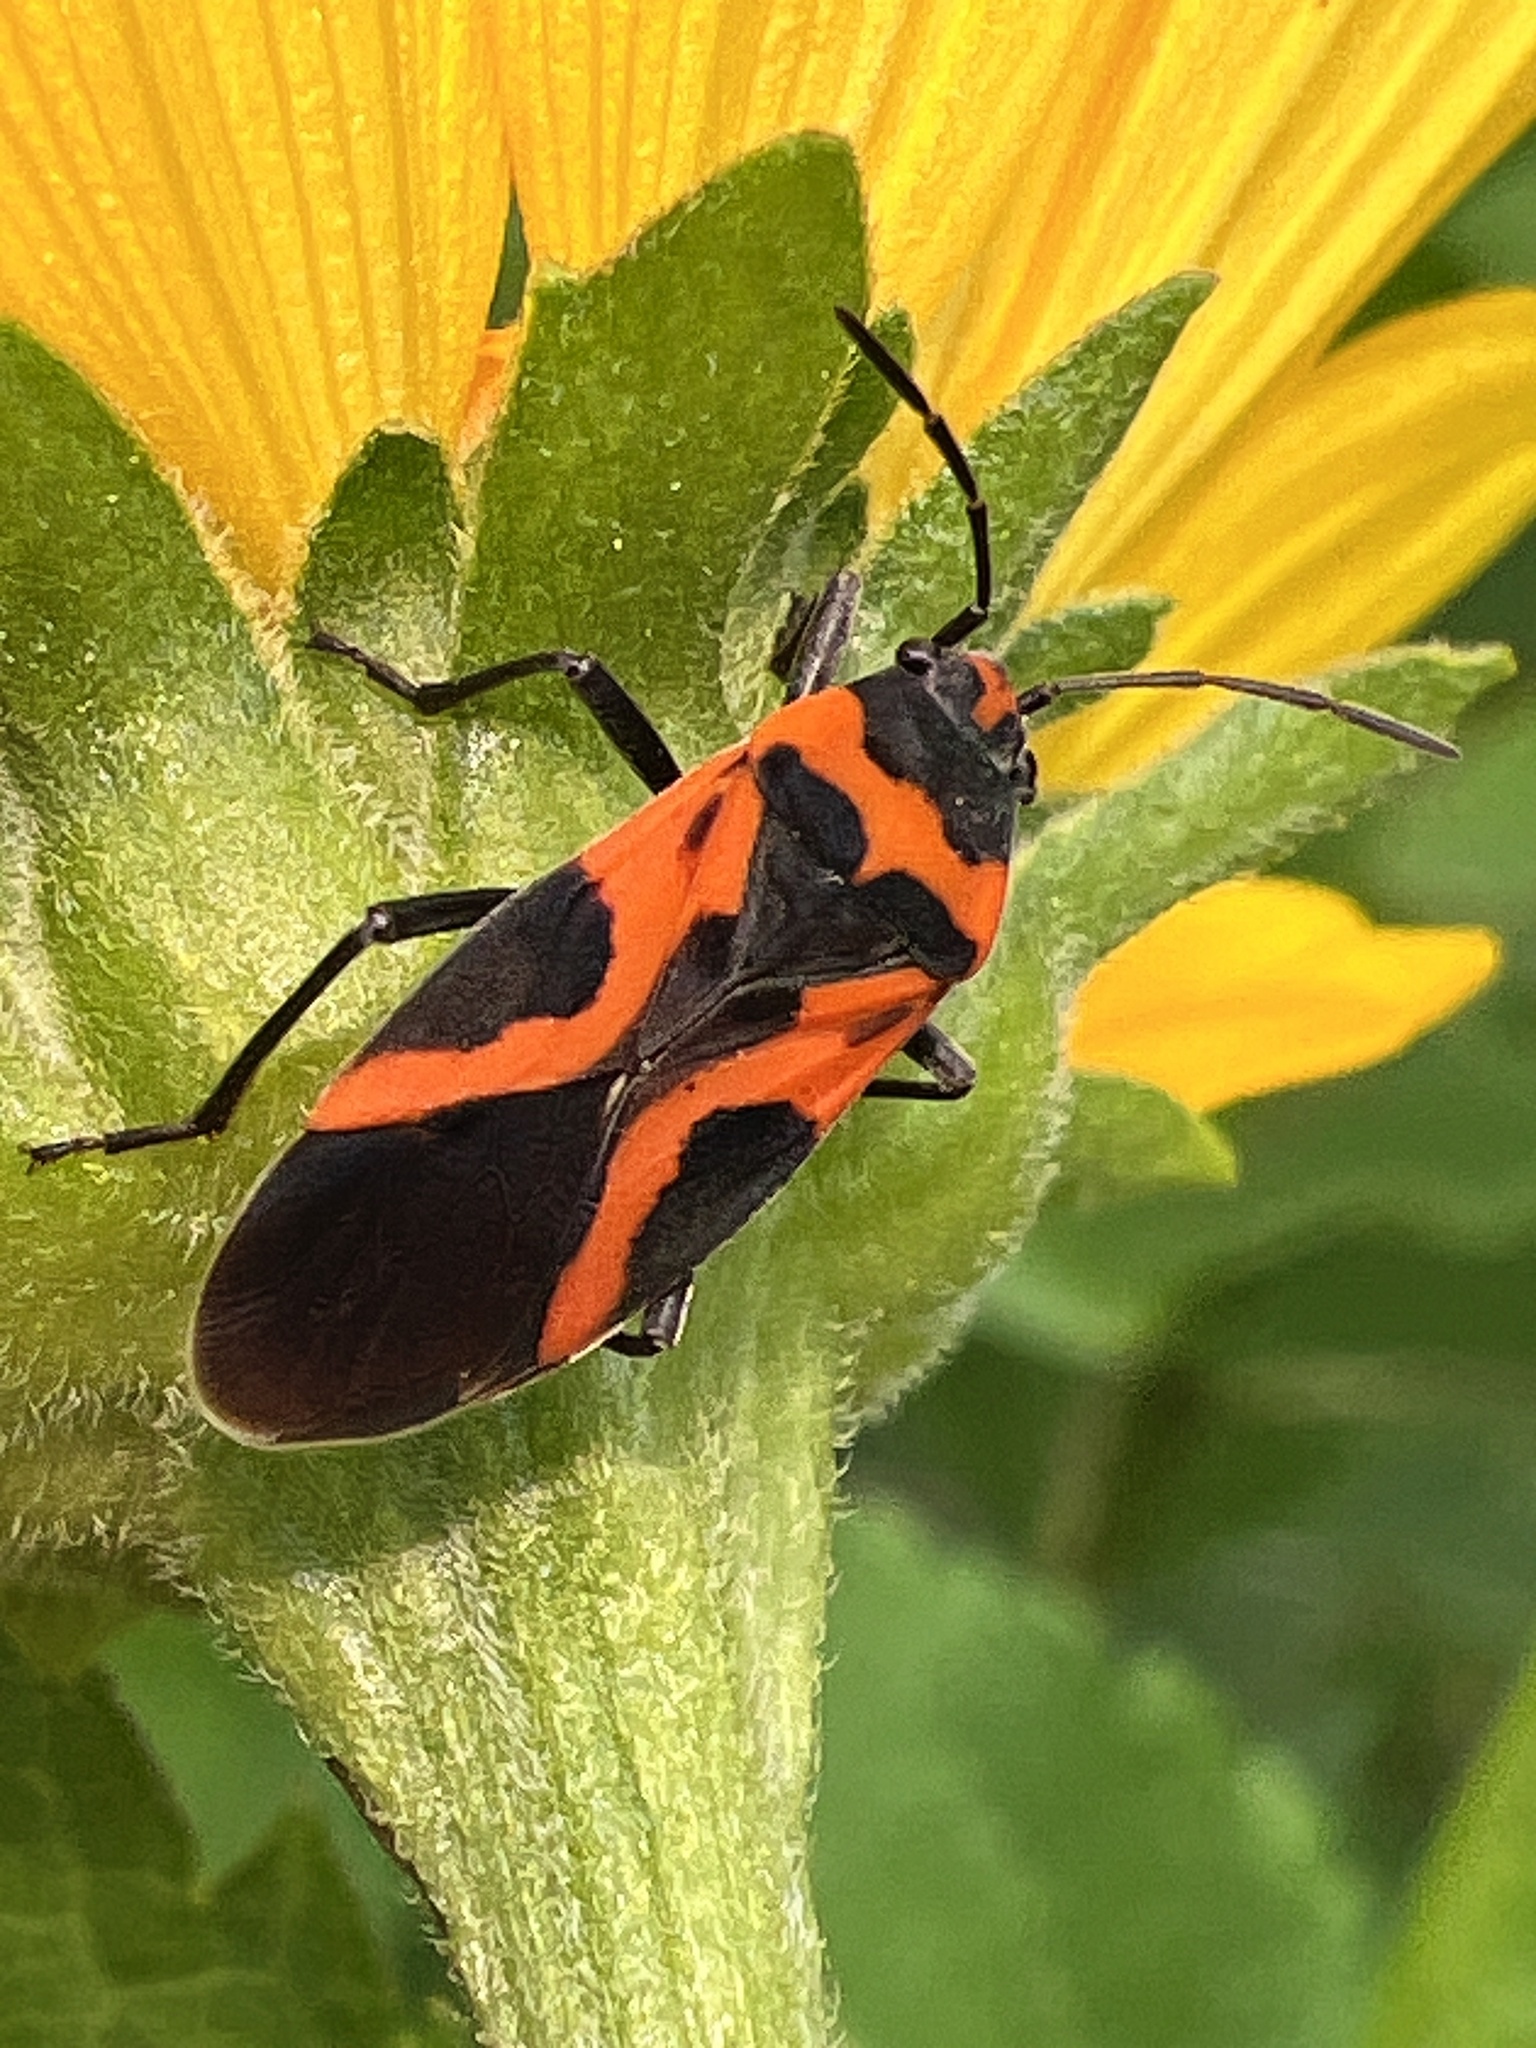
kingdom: Animalia
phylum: Arthropoda
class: Insecta
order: Hemiptera
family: Lygaeidae
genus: Lygaeus
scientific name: Lygaeus turcicus
